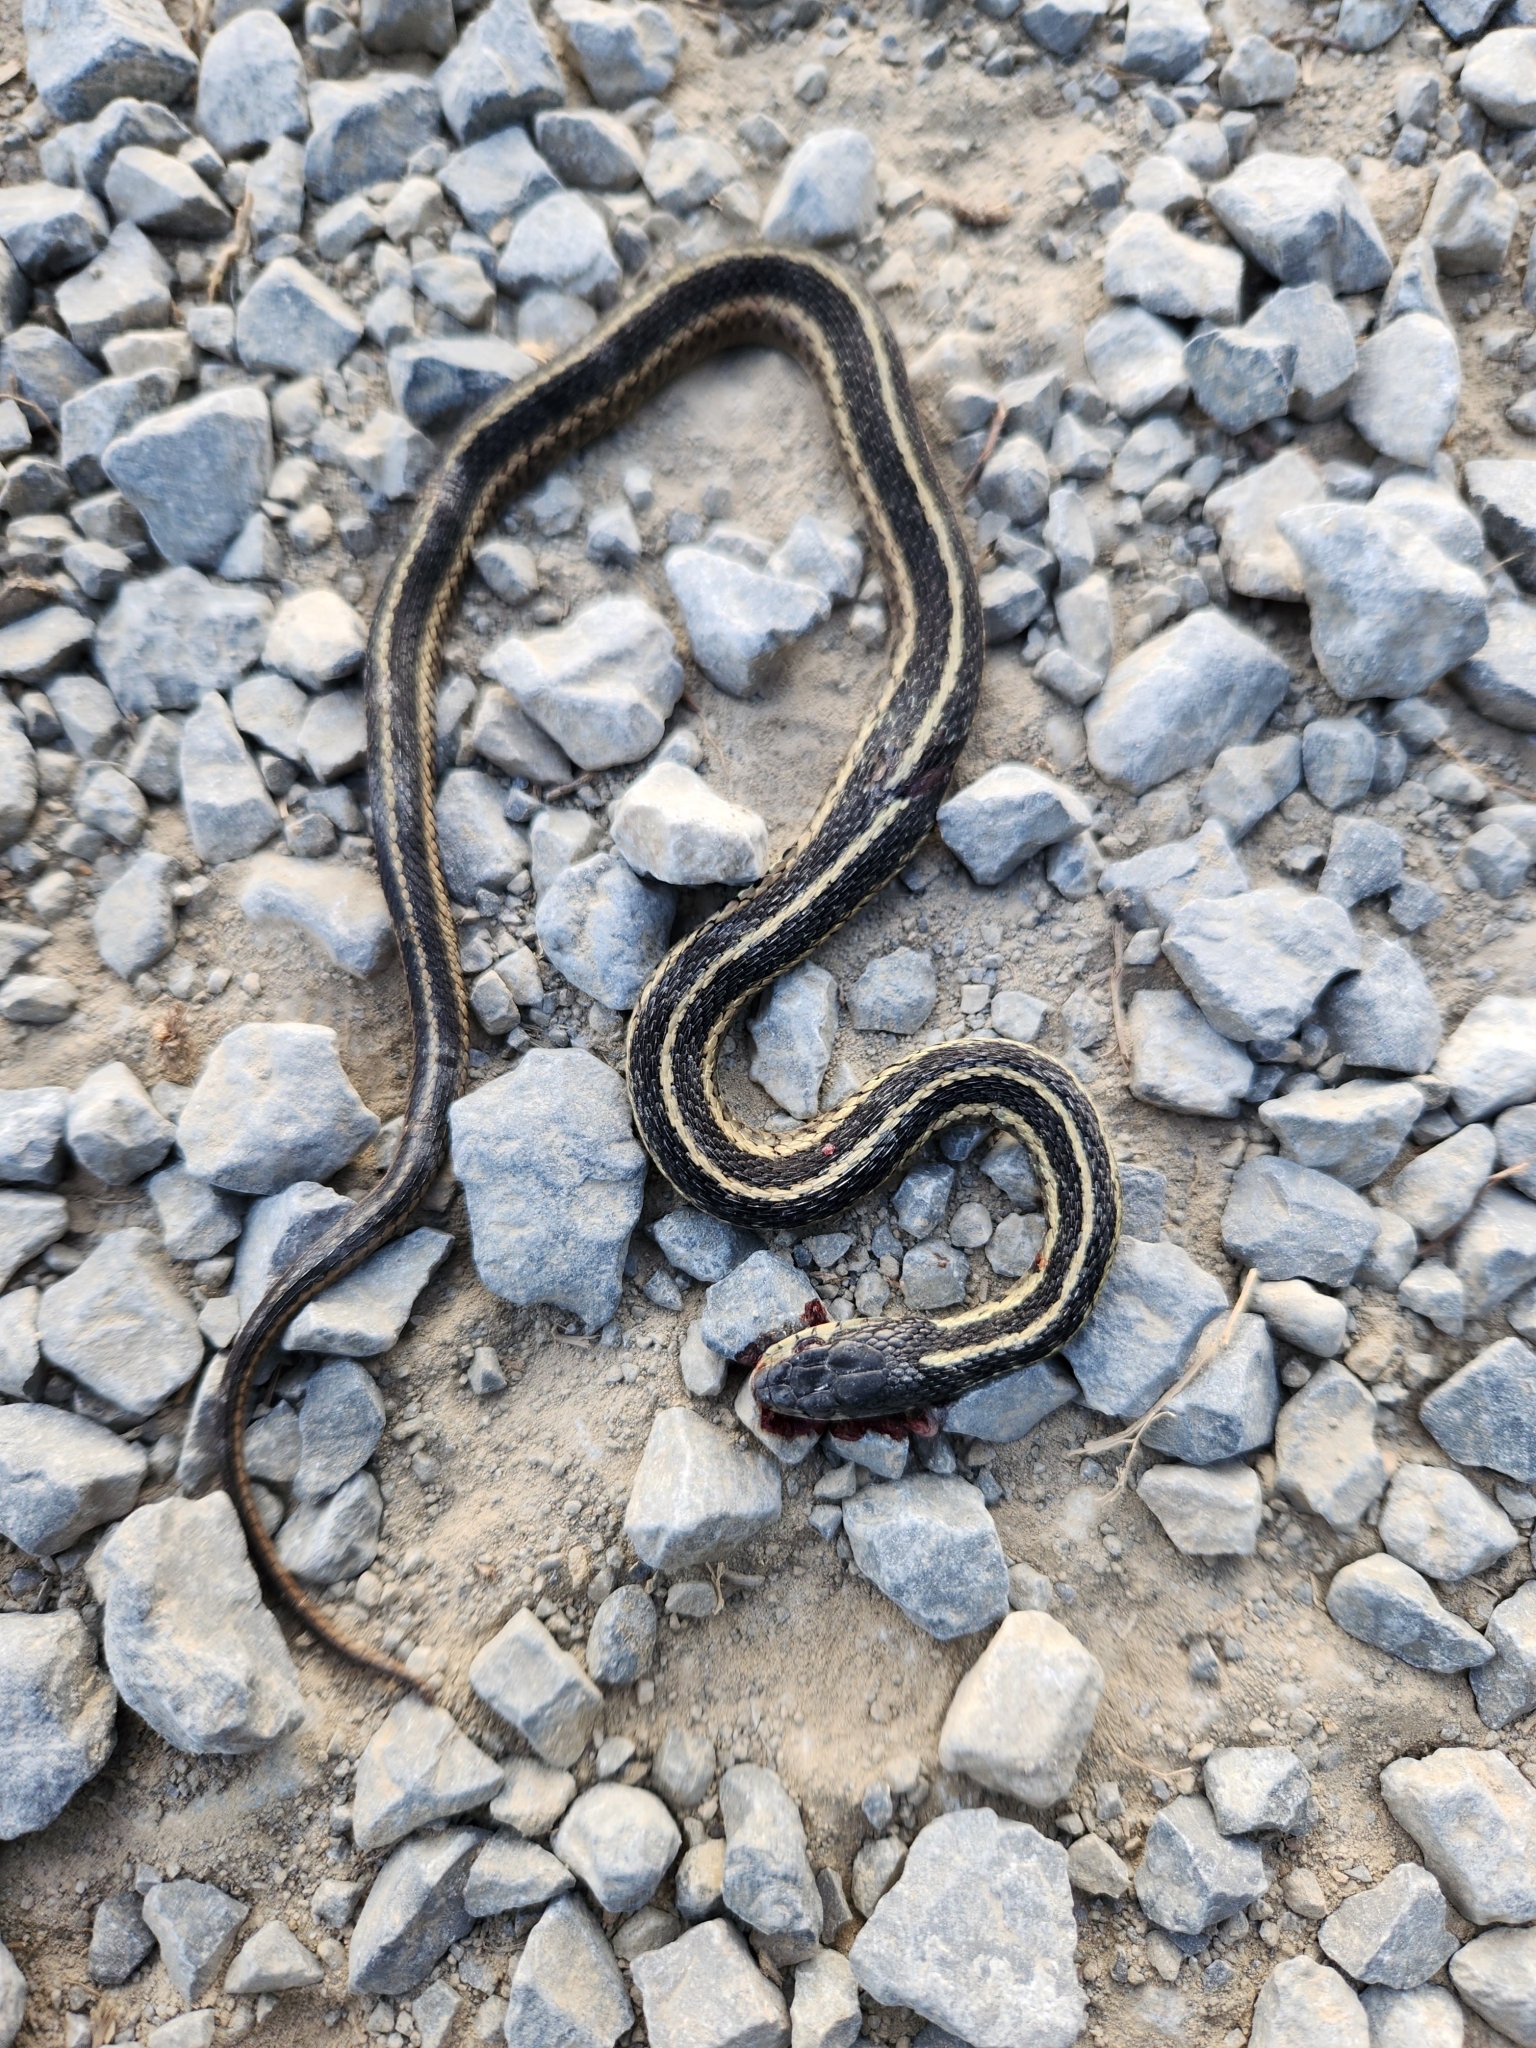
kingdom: Animalia
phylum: Chordata
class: Squamata
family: Colubridae
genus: Thamnophis
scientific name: Thamnophis sirtalis
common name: Common garter snake
